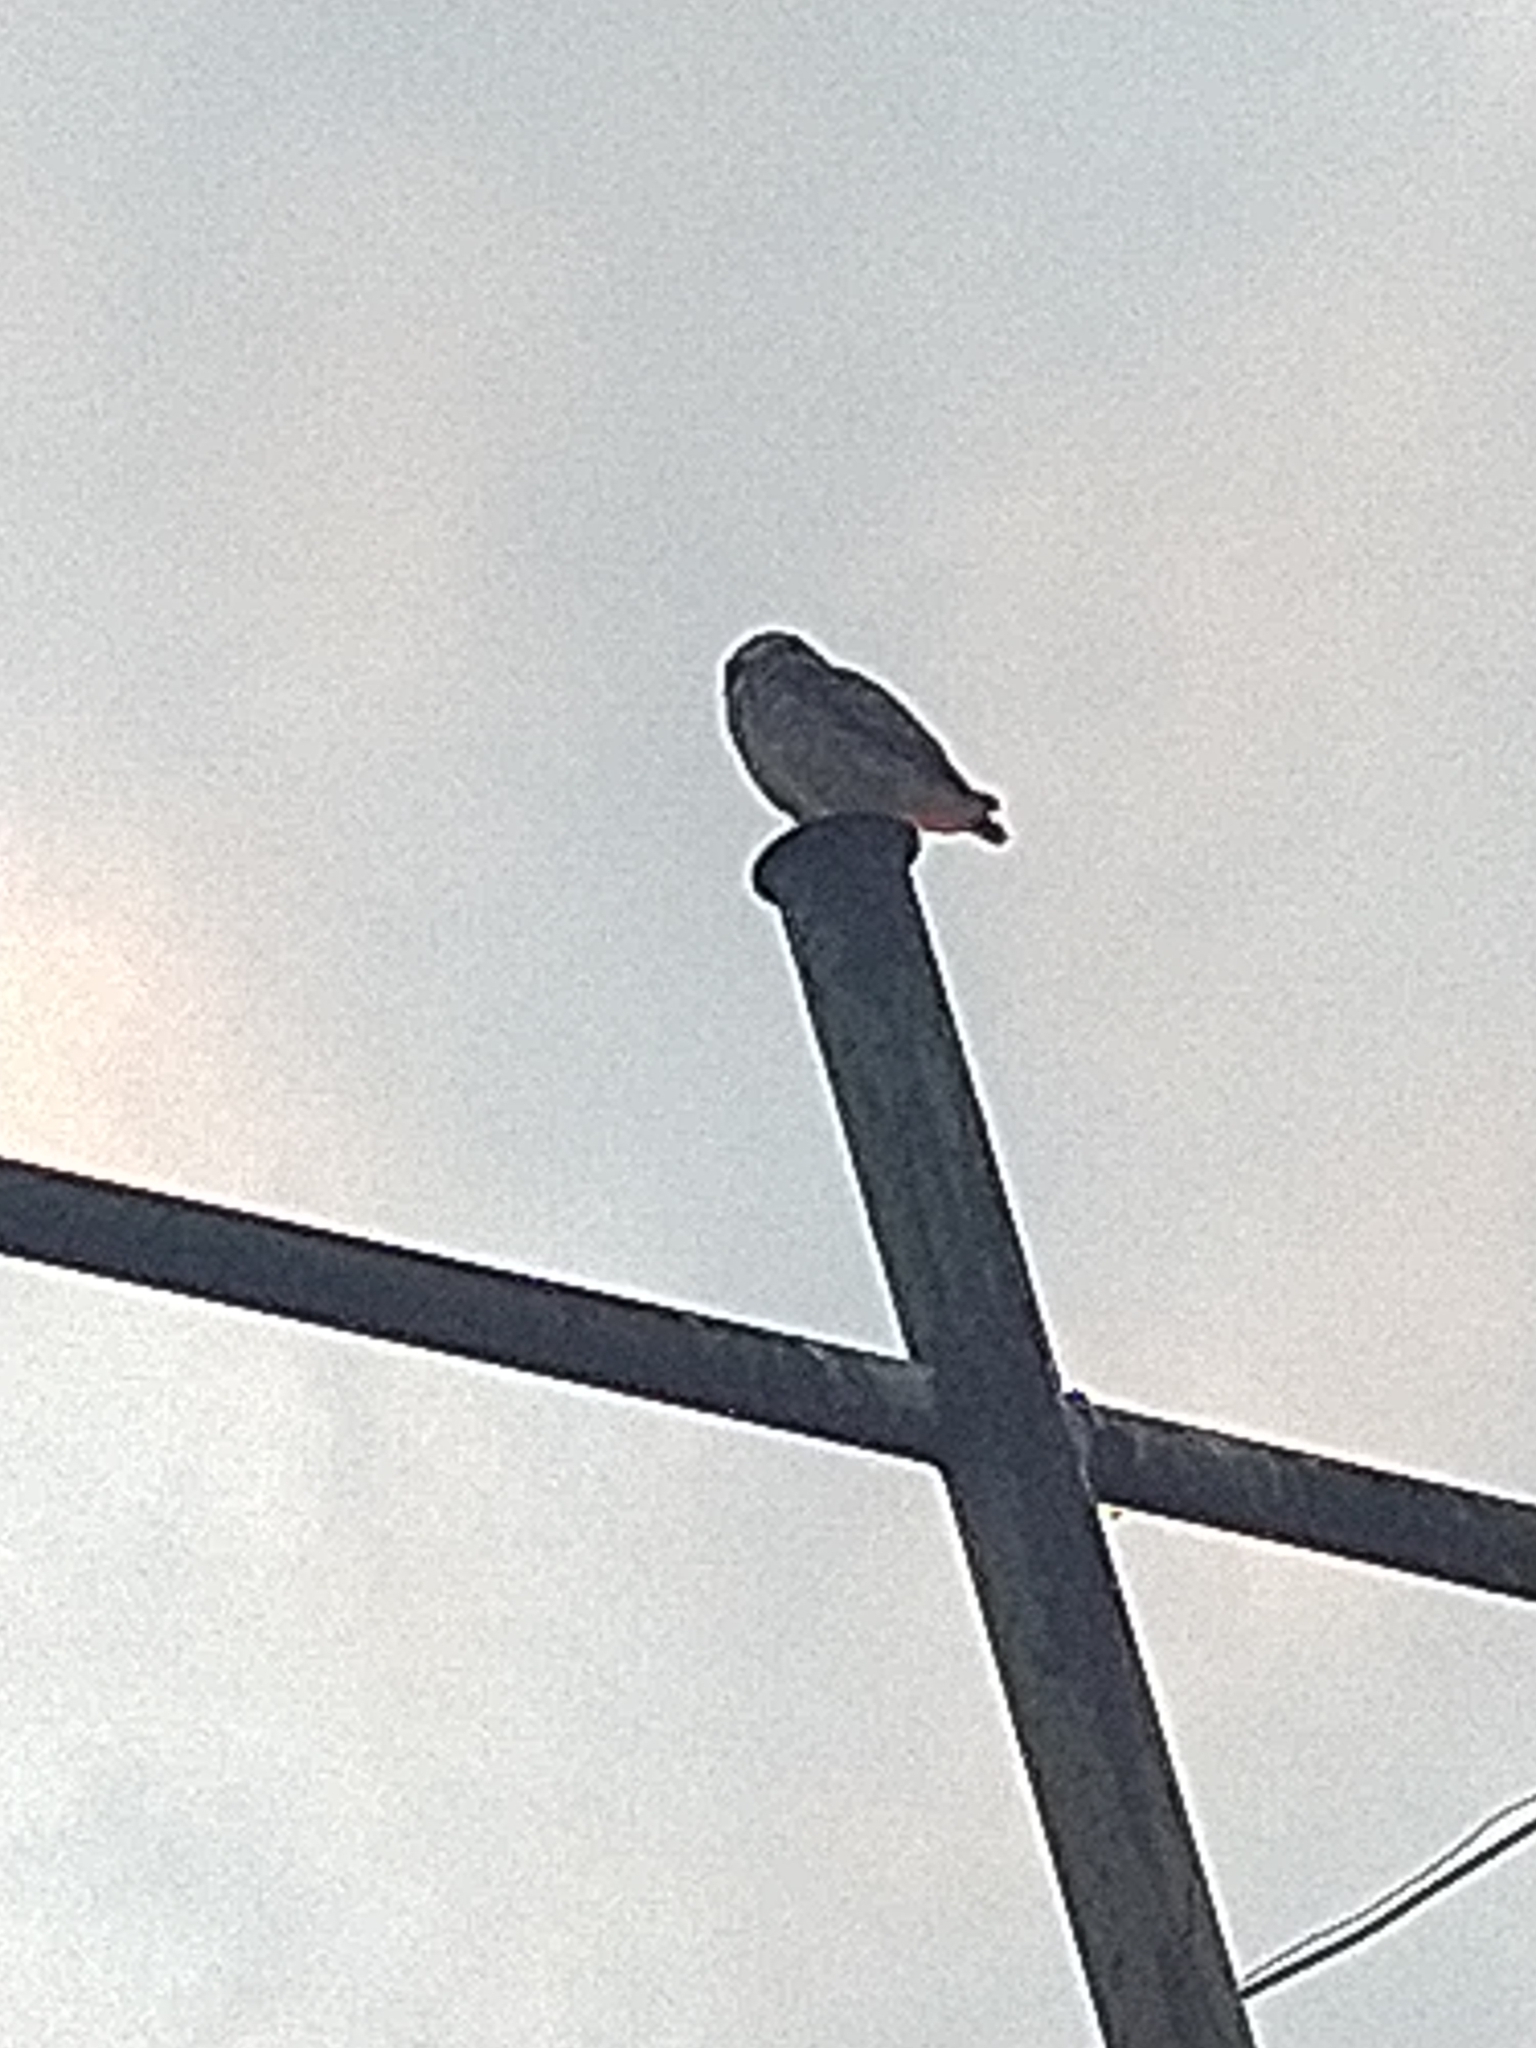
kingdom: Animalia
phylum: Chordata
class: Aves
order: Strigiformes
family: Strigidae
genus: Athene
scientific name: Athene cunicularia
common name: Burrowing owl
